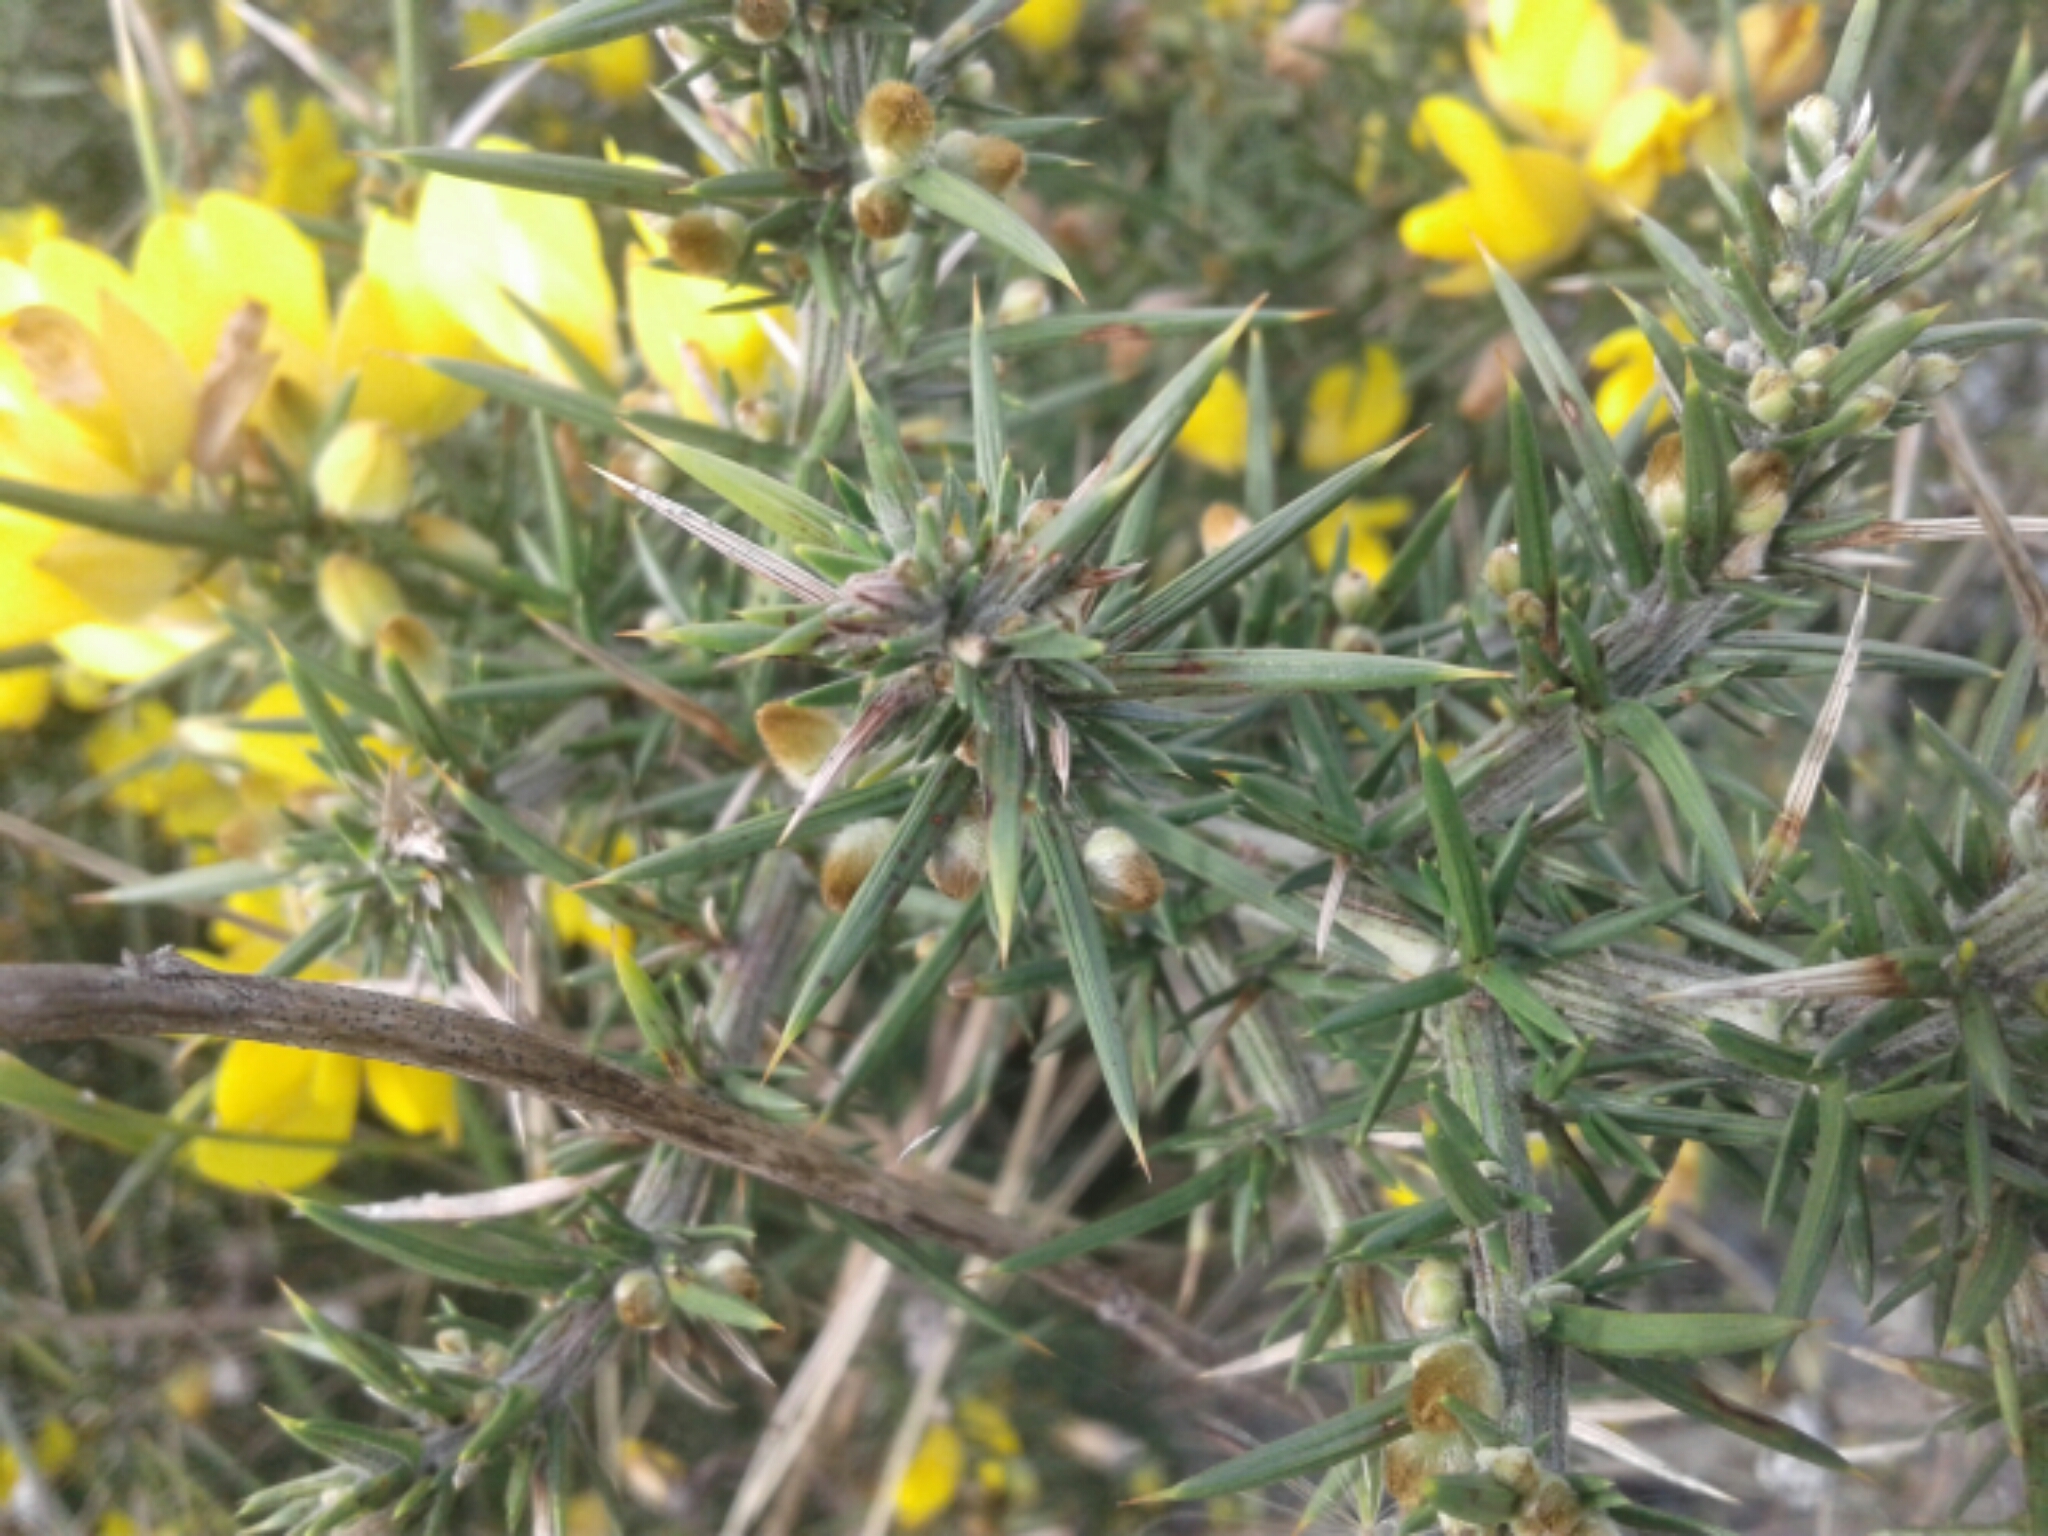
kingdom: Plantae
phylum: Tracheophyta
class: Magnoliopsida
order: Fabales
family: Fabaceae
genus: Ulex
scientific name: Ulex europaeus
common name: Common gorse
